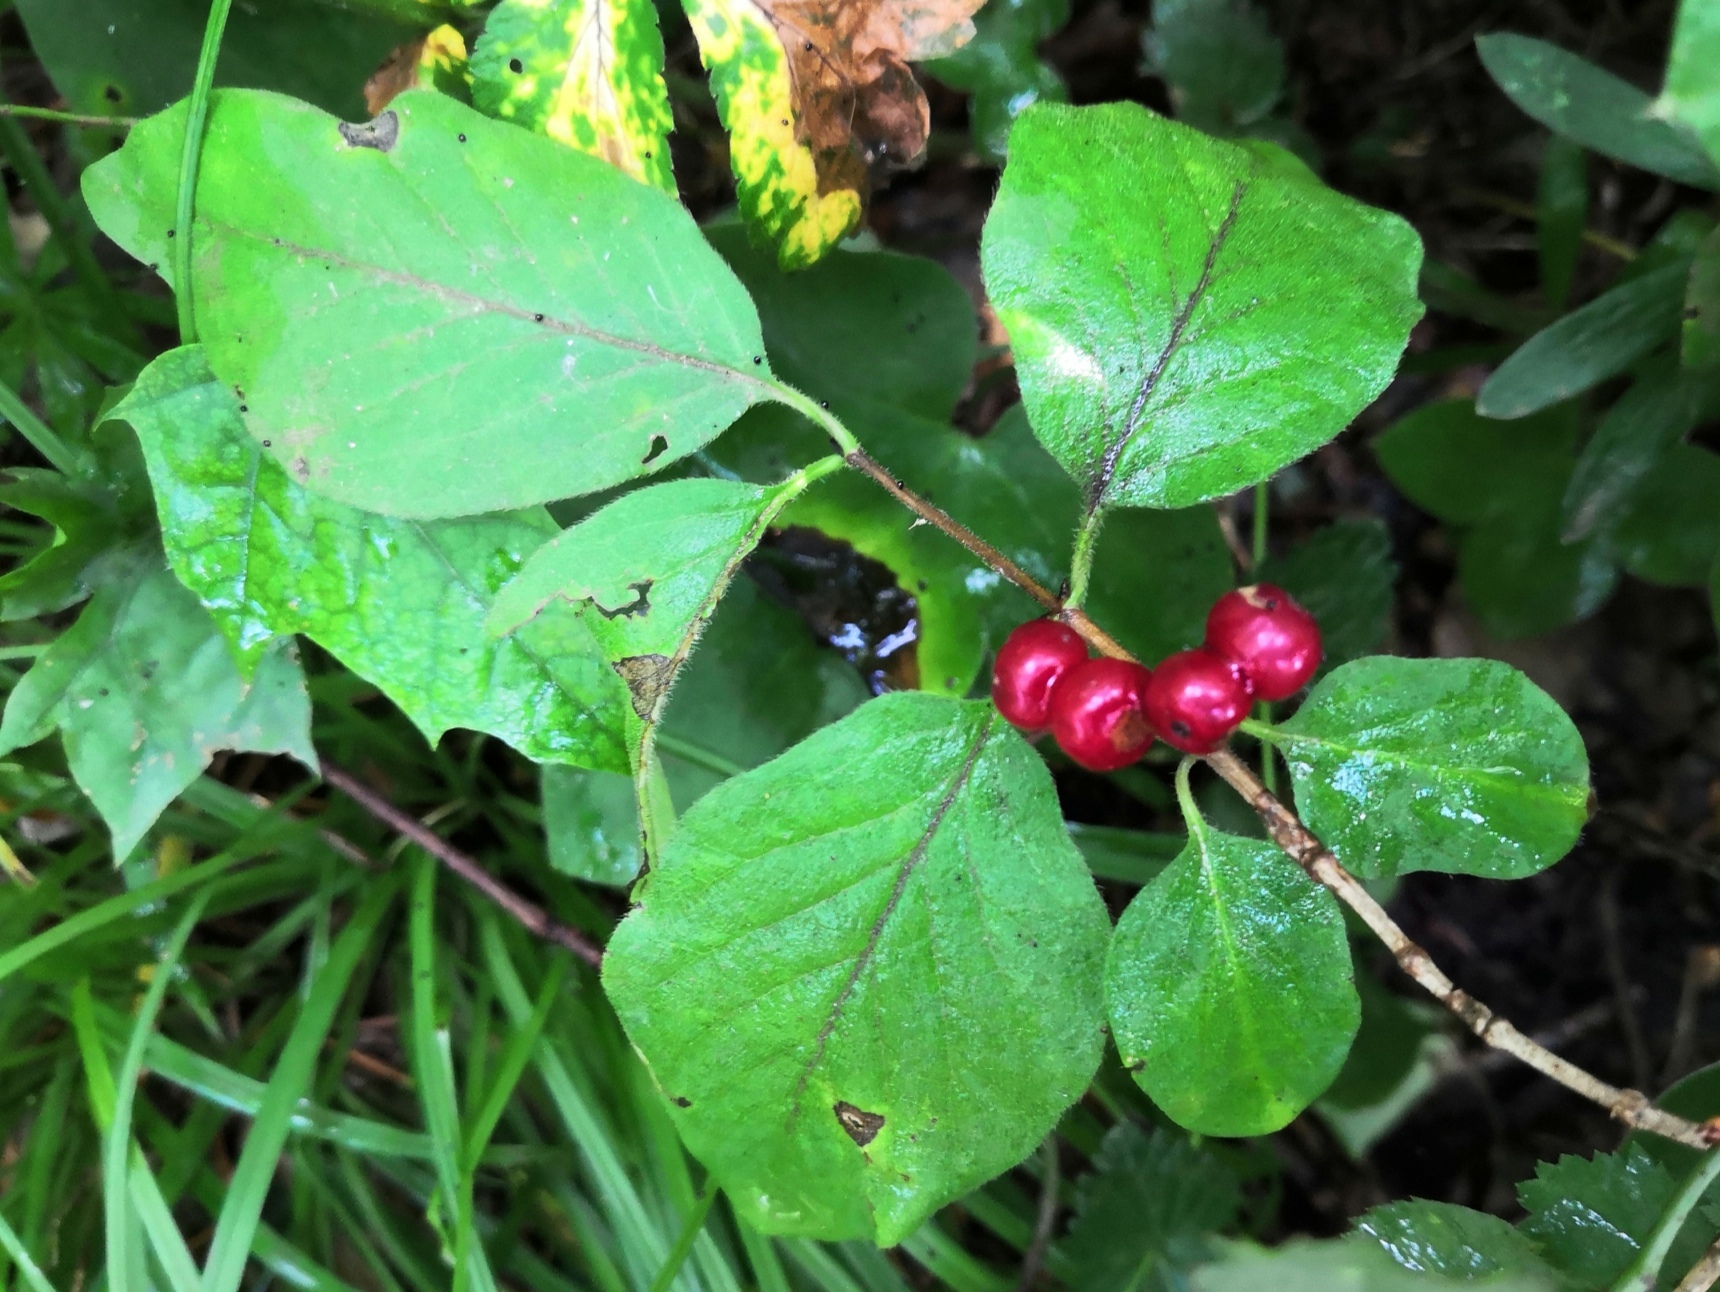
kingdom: Plantae
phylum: Tracheophyta
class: Magnoliopsida
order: Dipsacales
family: Caprifoliaceae
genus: Lonicera
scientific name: Lonicera xylosteum
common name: Fly honeysuckle
